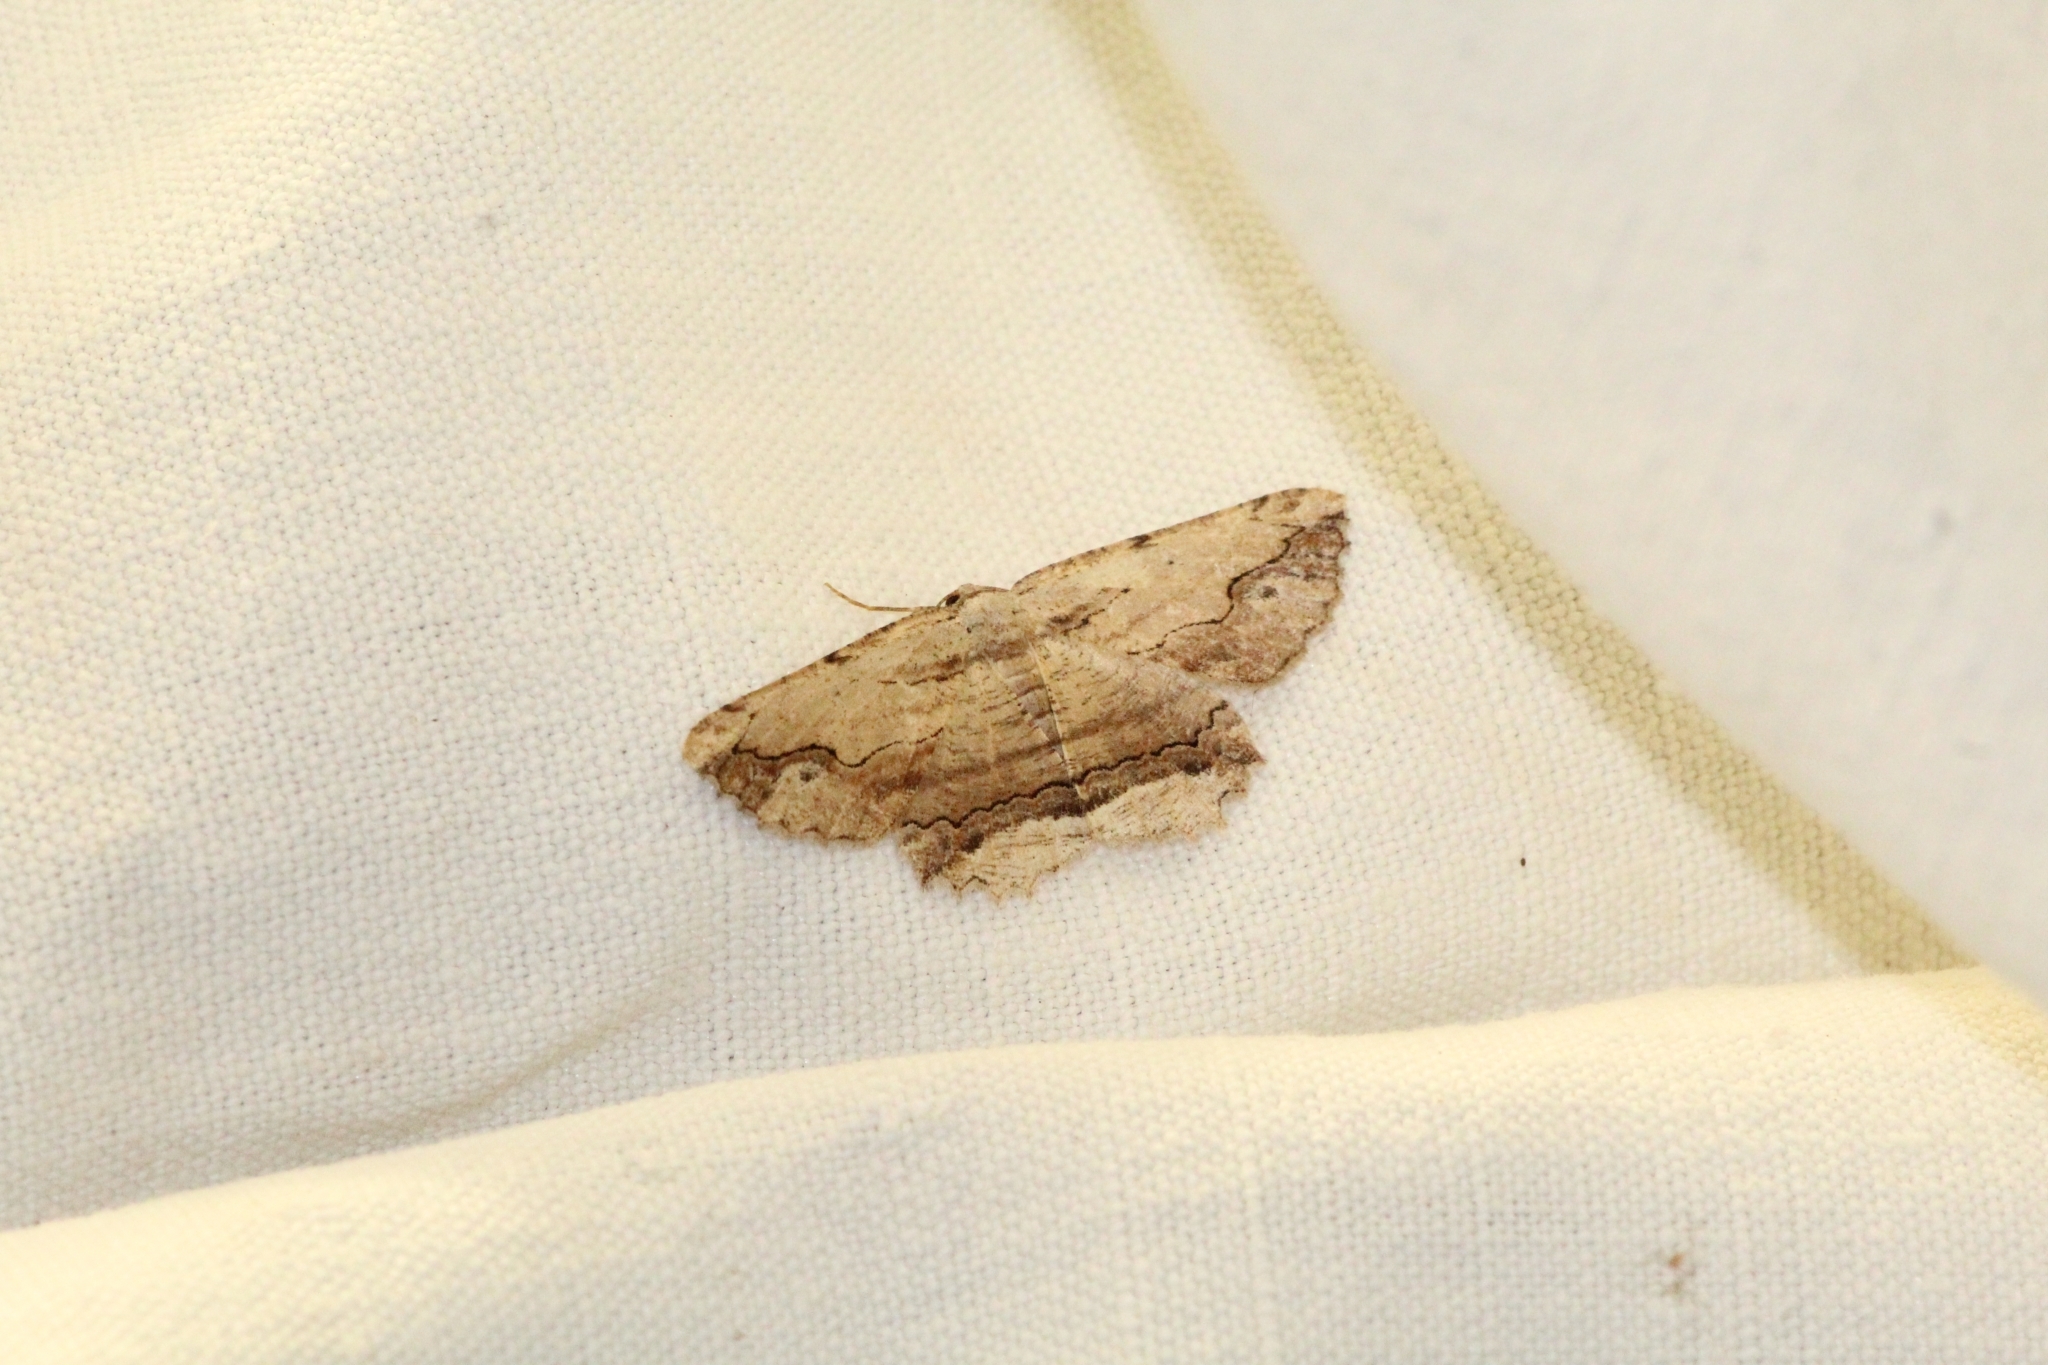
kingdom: Animalia
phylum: Arthropoda
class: Insecta
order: Lepidoptera
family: Geometridae
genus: Menophra
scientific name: Menophra abruptaria
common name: Waved umber
